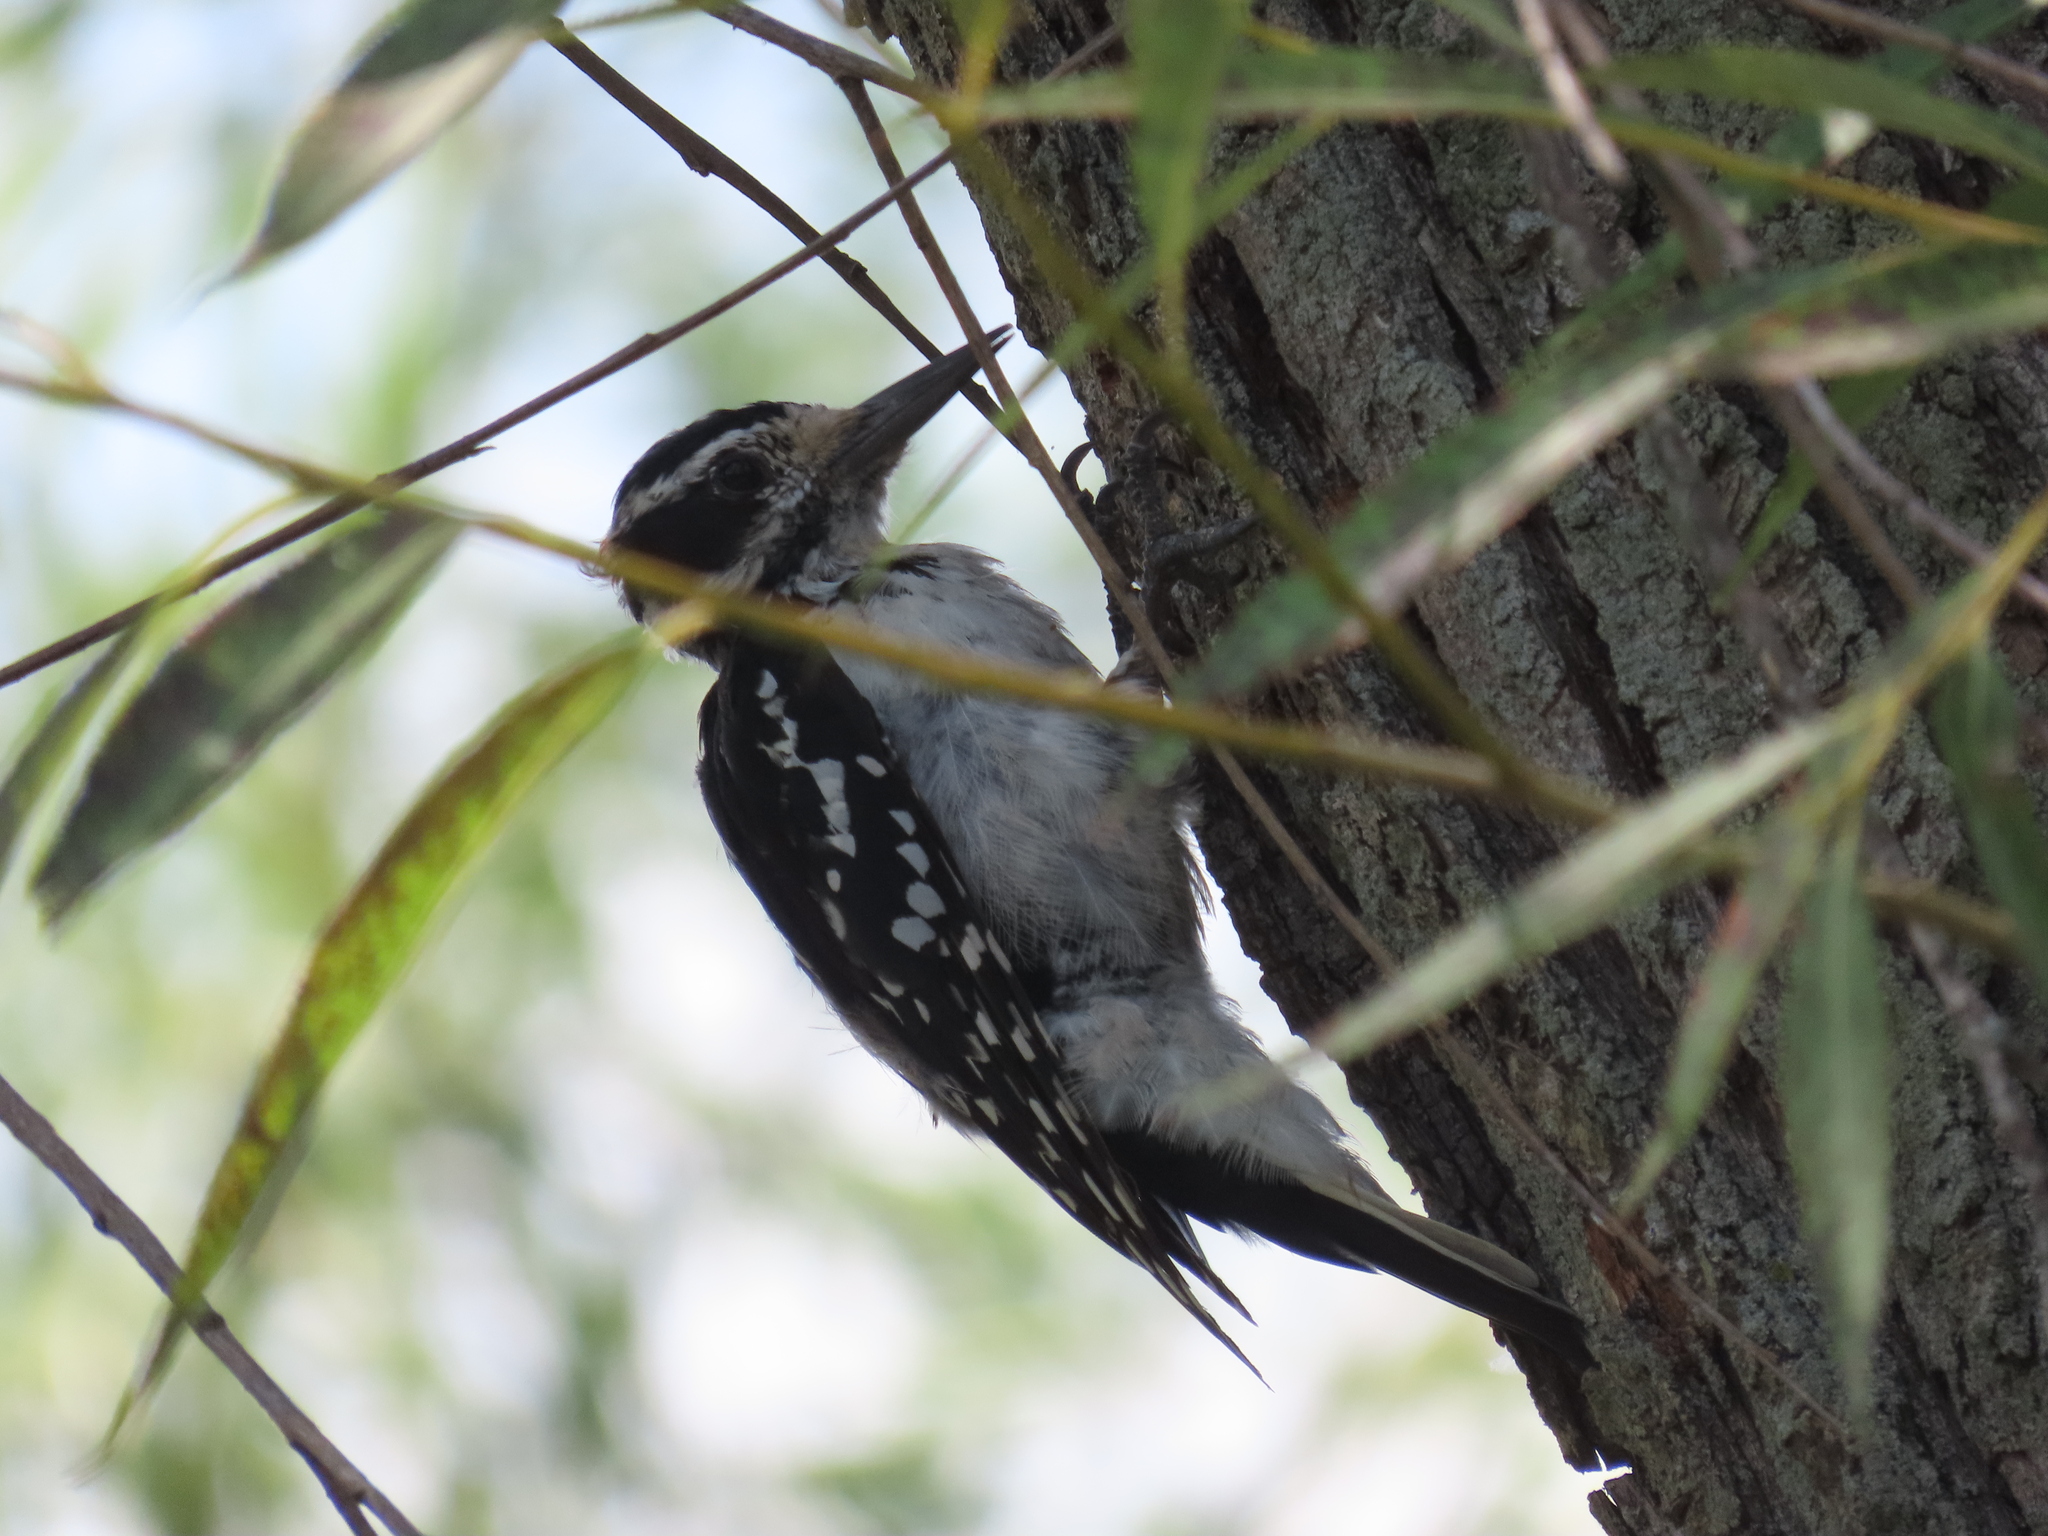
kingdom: Animalia
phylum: Chordata
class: Aves
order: Piciformes
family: Picidae
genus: Leuconotopicus
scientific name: Leuconotopicus villosus
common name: Hairy woodpecker
